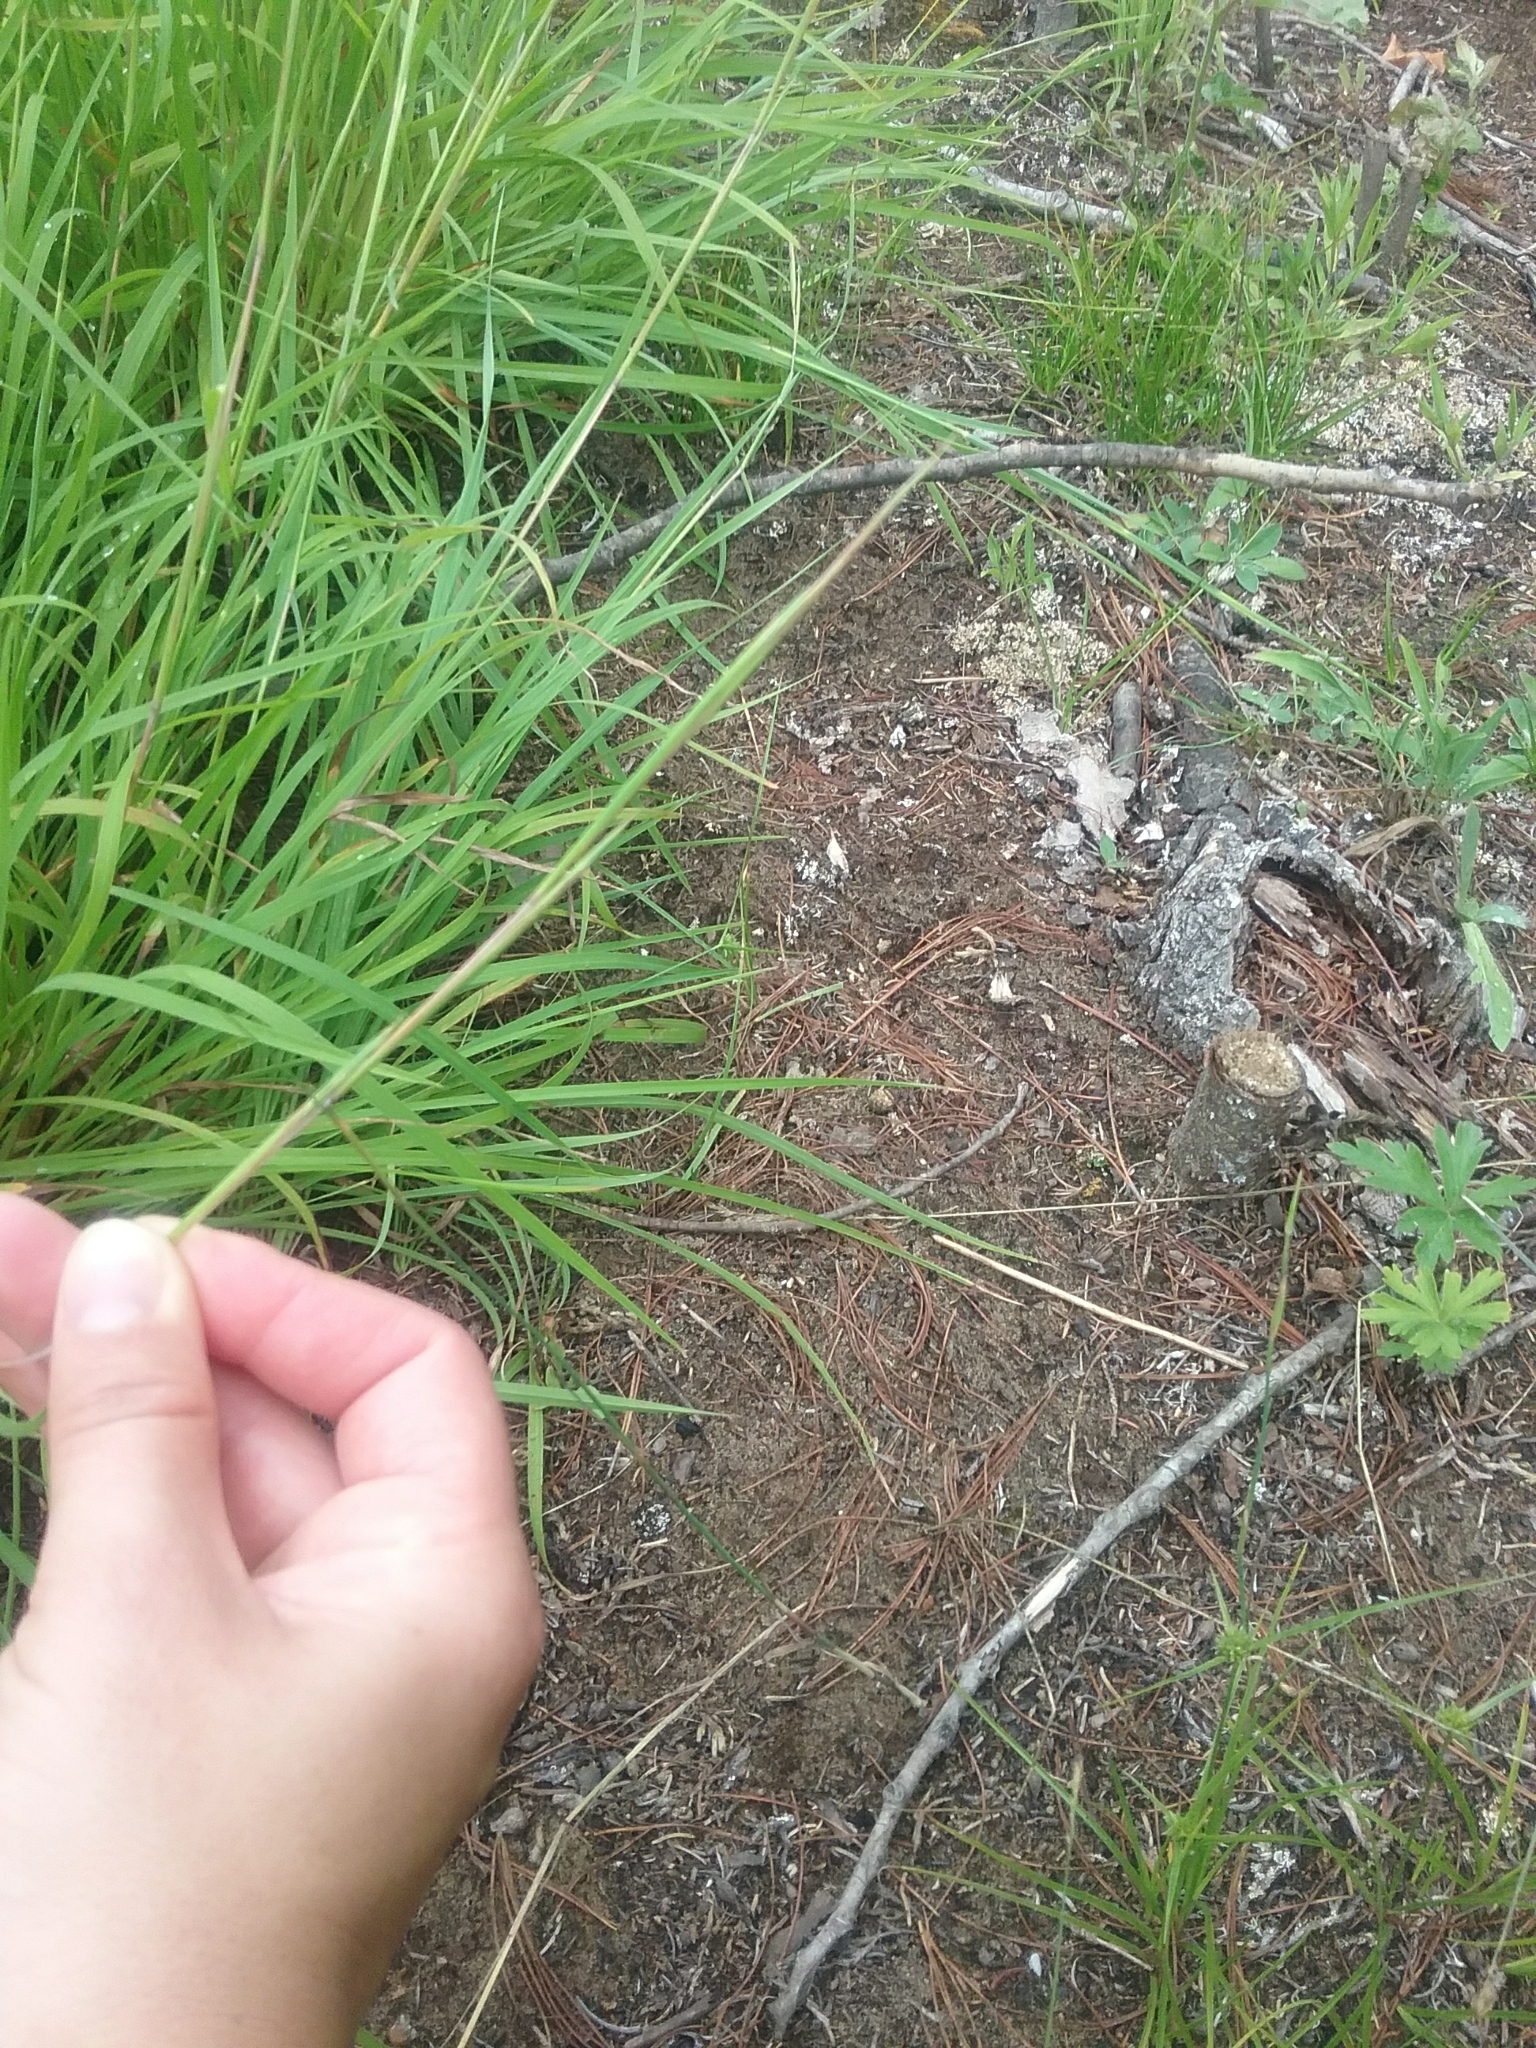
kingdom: Plantae
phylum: Tracheophyta
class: Liliopsida
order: Poales
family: Poaceae
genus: Schizachyrium
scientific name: Schizachyrium scoparium
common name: Little bluestem
